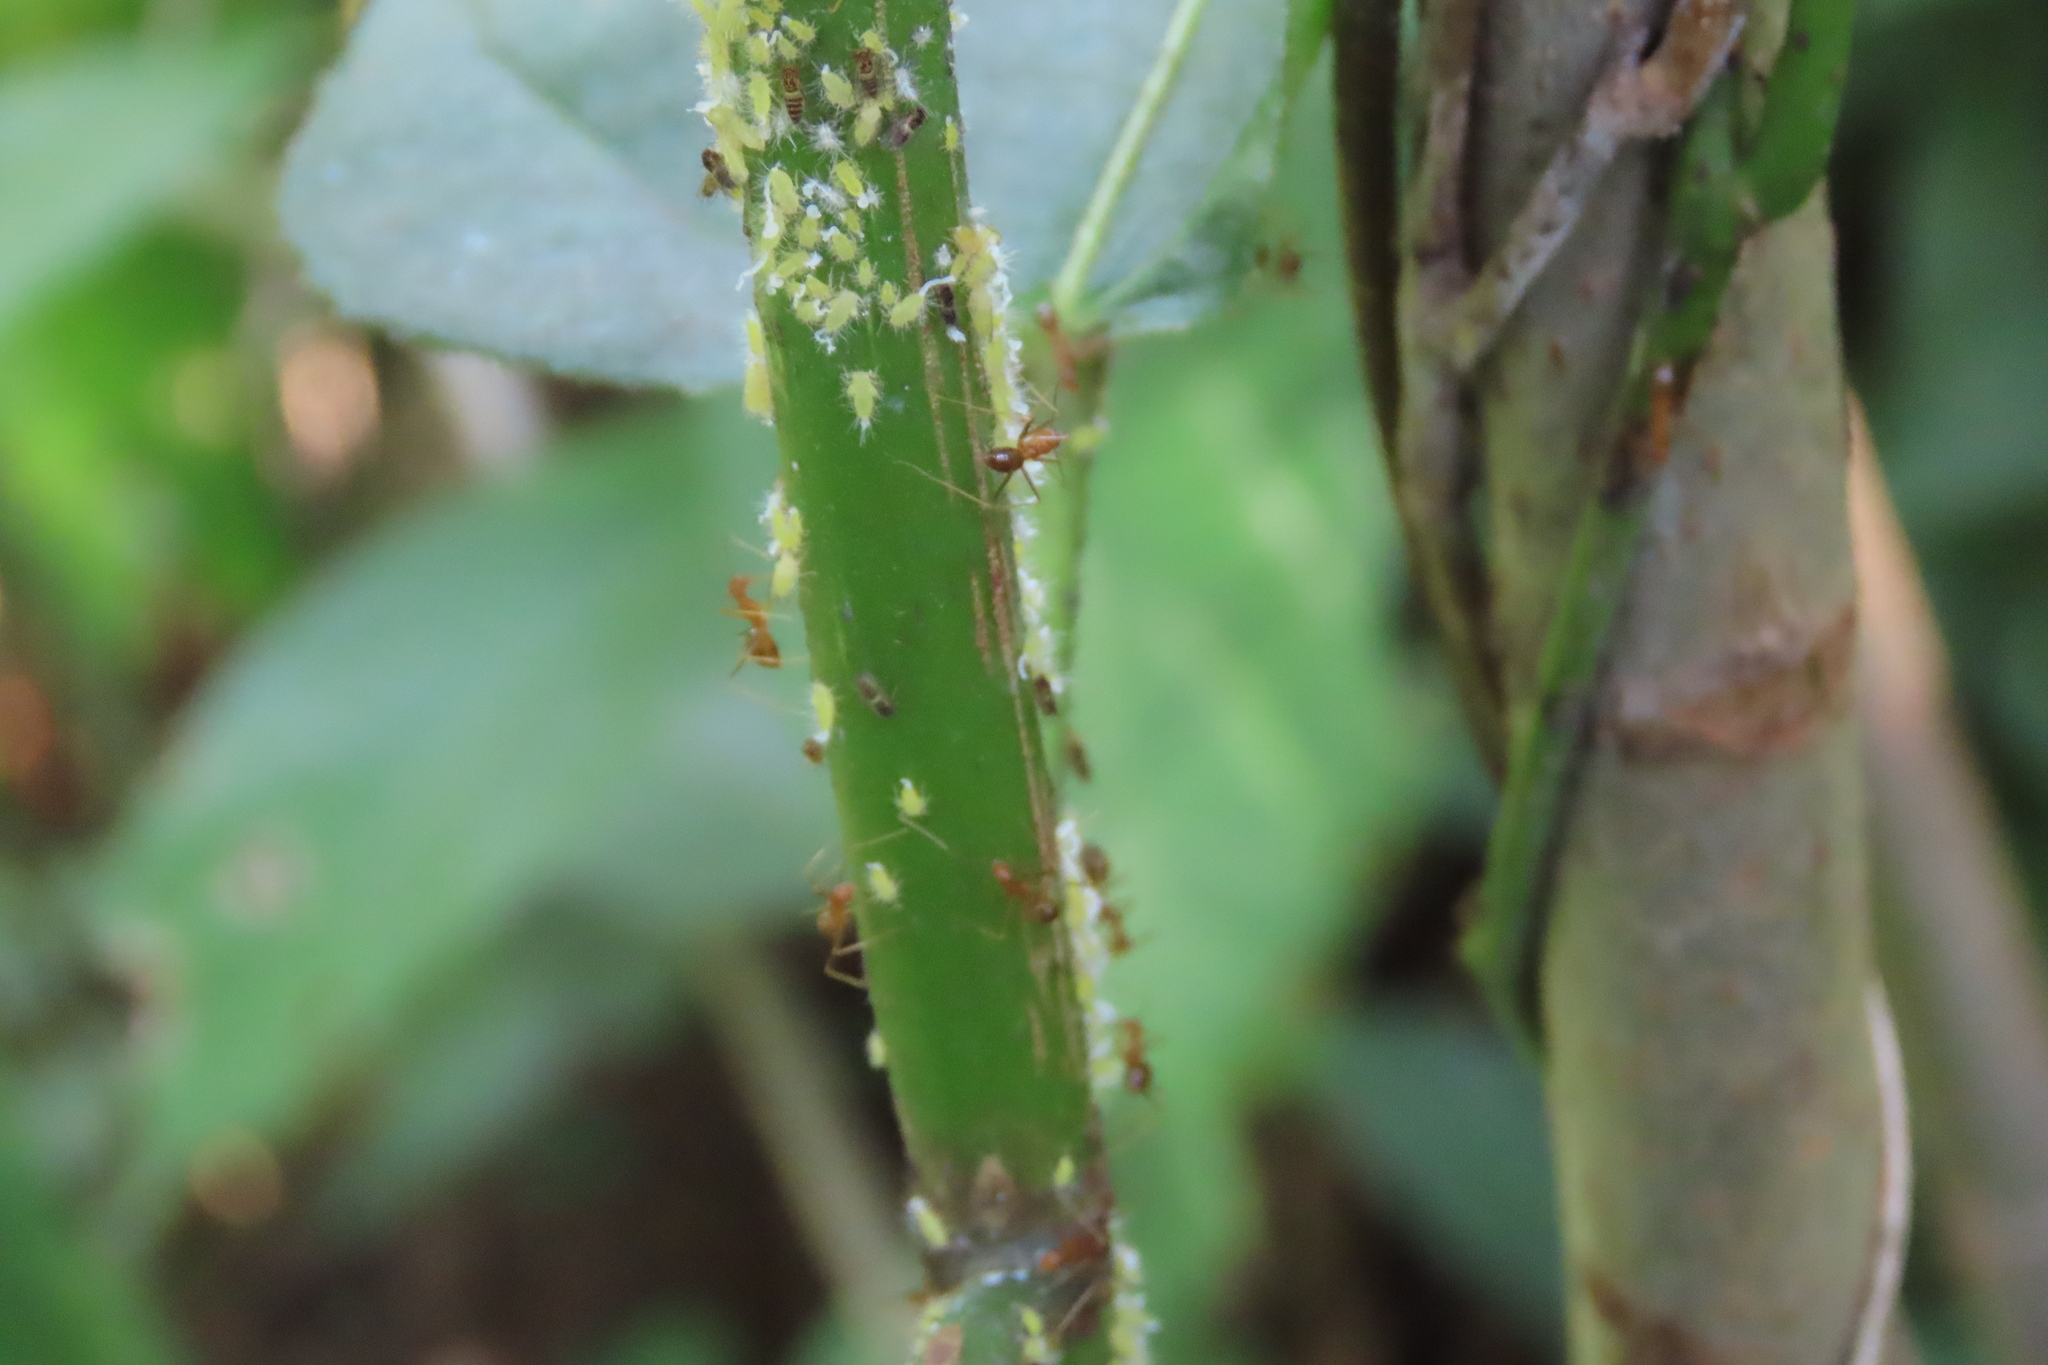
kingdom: Animalia
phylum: Arthropoda
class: Insecta
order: Hymenoptera
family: Formicidae
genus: Anoplolepis
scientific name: Anoplolepis gracilipes
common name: Ant
